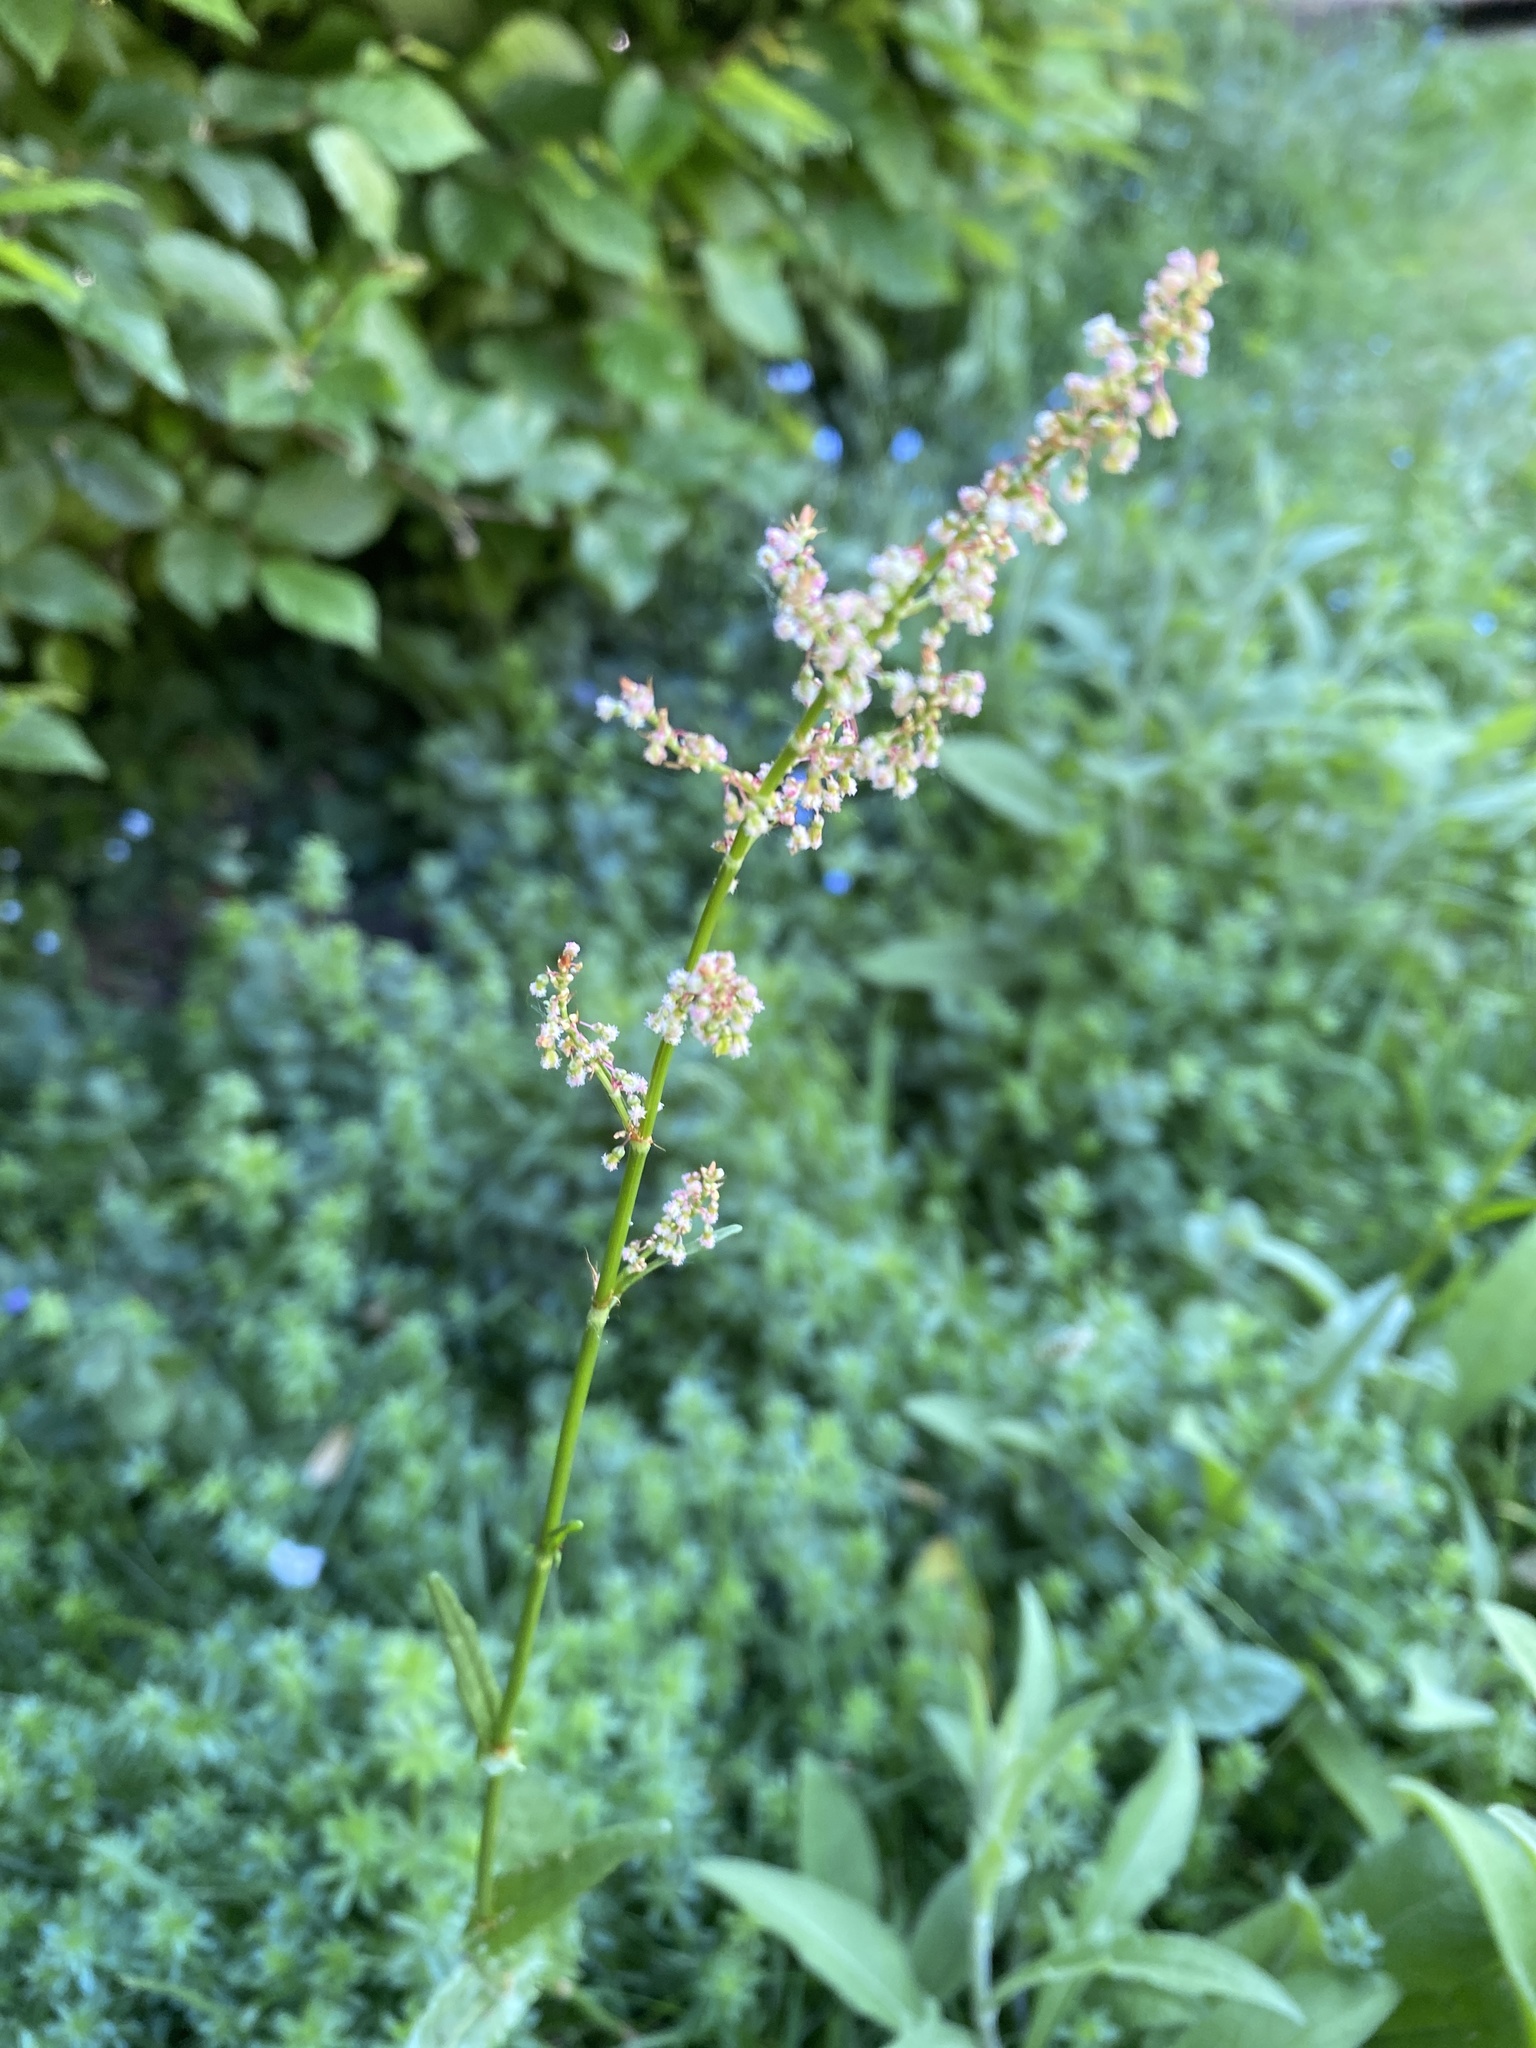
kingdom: Plantae
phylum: Tracheophyta
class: Magnoliopsida
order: Caryophyllales
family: Polygonaceae
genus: Rumex
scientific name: Rumex acetosa
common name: Garden sorrel
